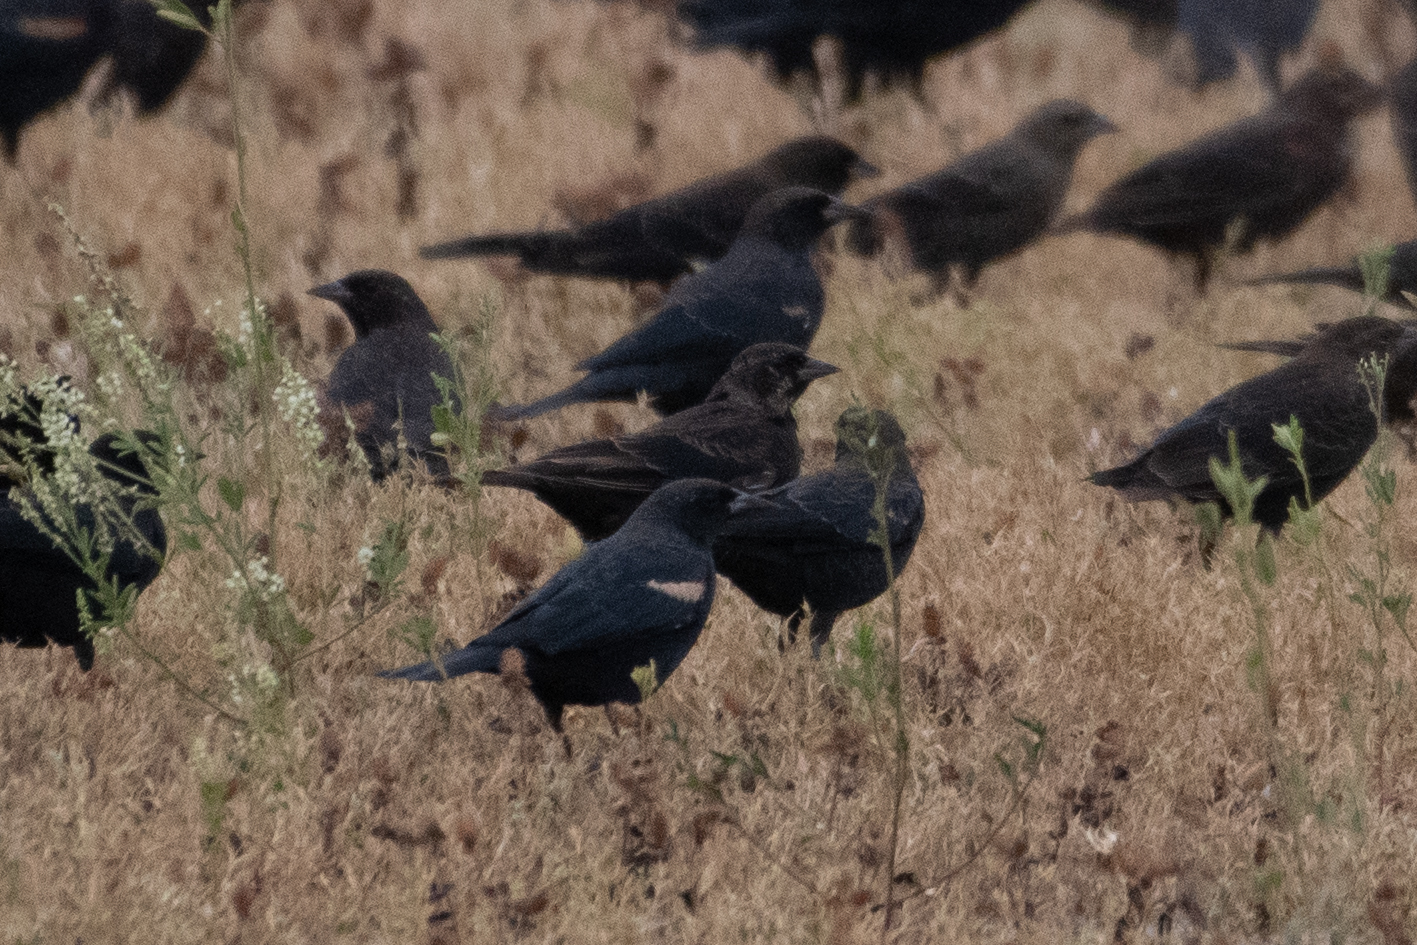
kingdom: Animalia
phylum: Chordata
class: Aves
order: Passeriformes
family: Icteridae
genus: Agelaius
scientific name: Agelaius tricolor
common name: Tricolored blackbird
